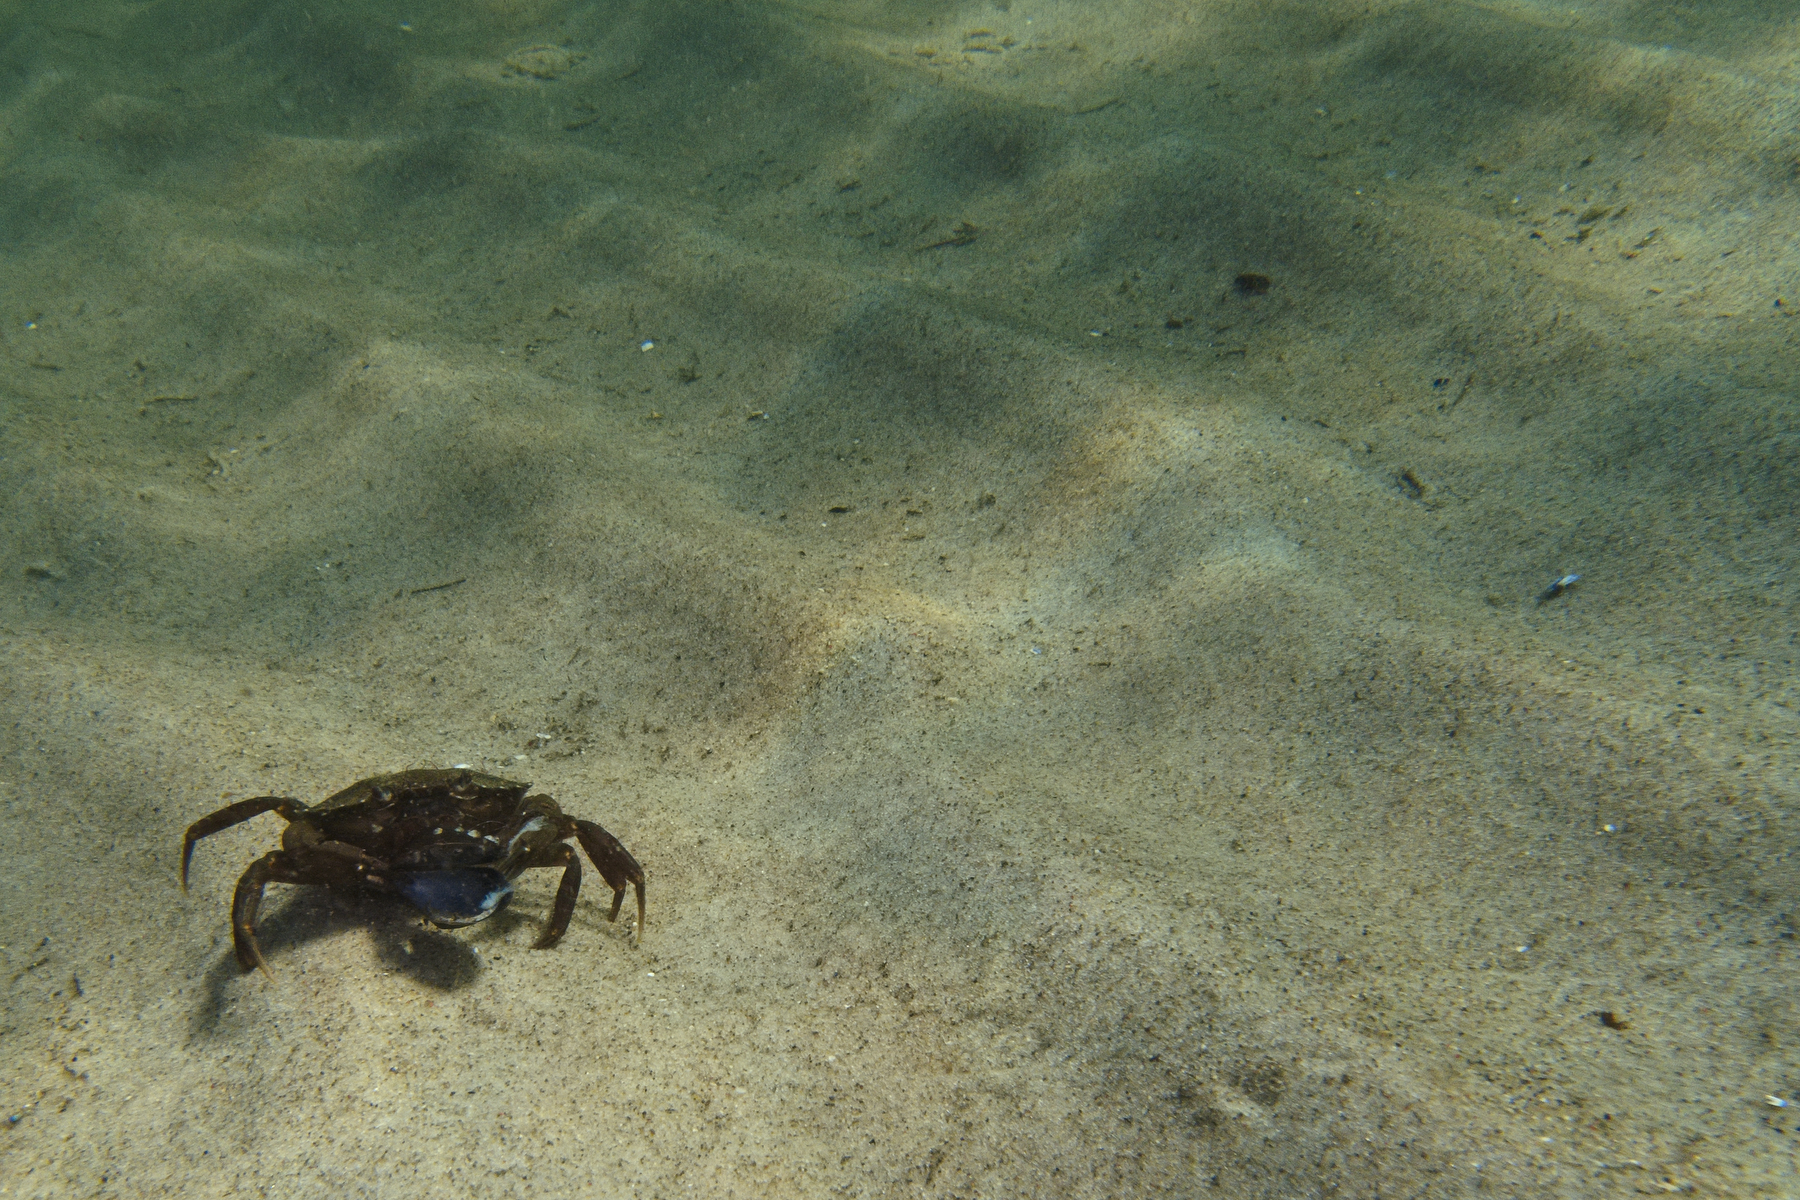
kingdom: Animalia
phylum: Mollusca
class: Bivalvia
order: Mytilida
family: Mytilidae
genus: Mytilus
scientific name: Mytilus edulis
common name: Blue mussel
